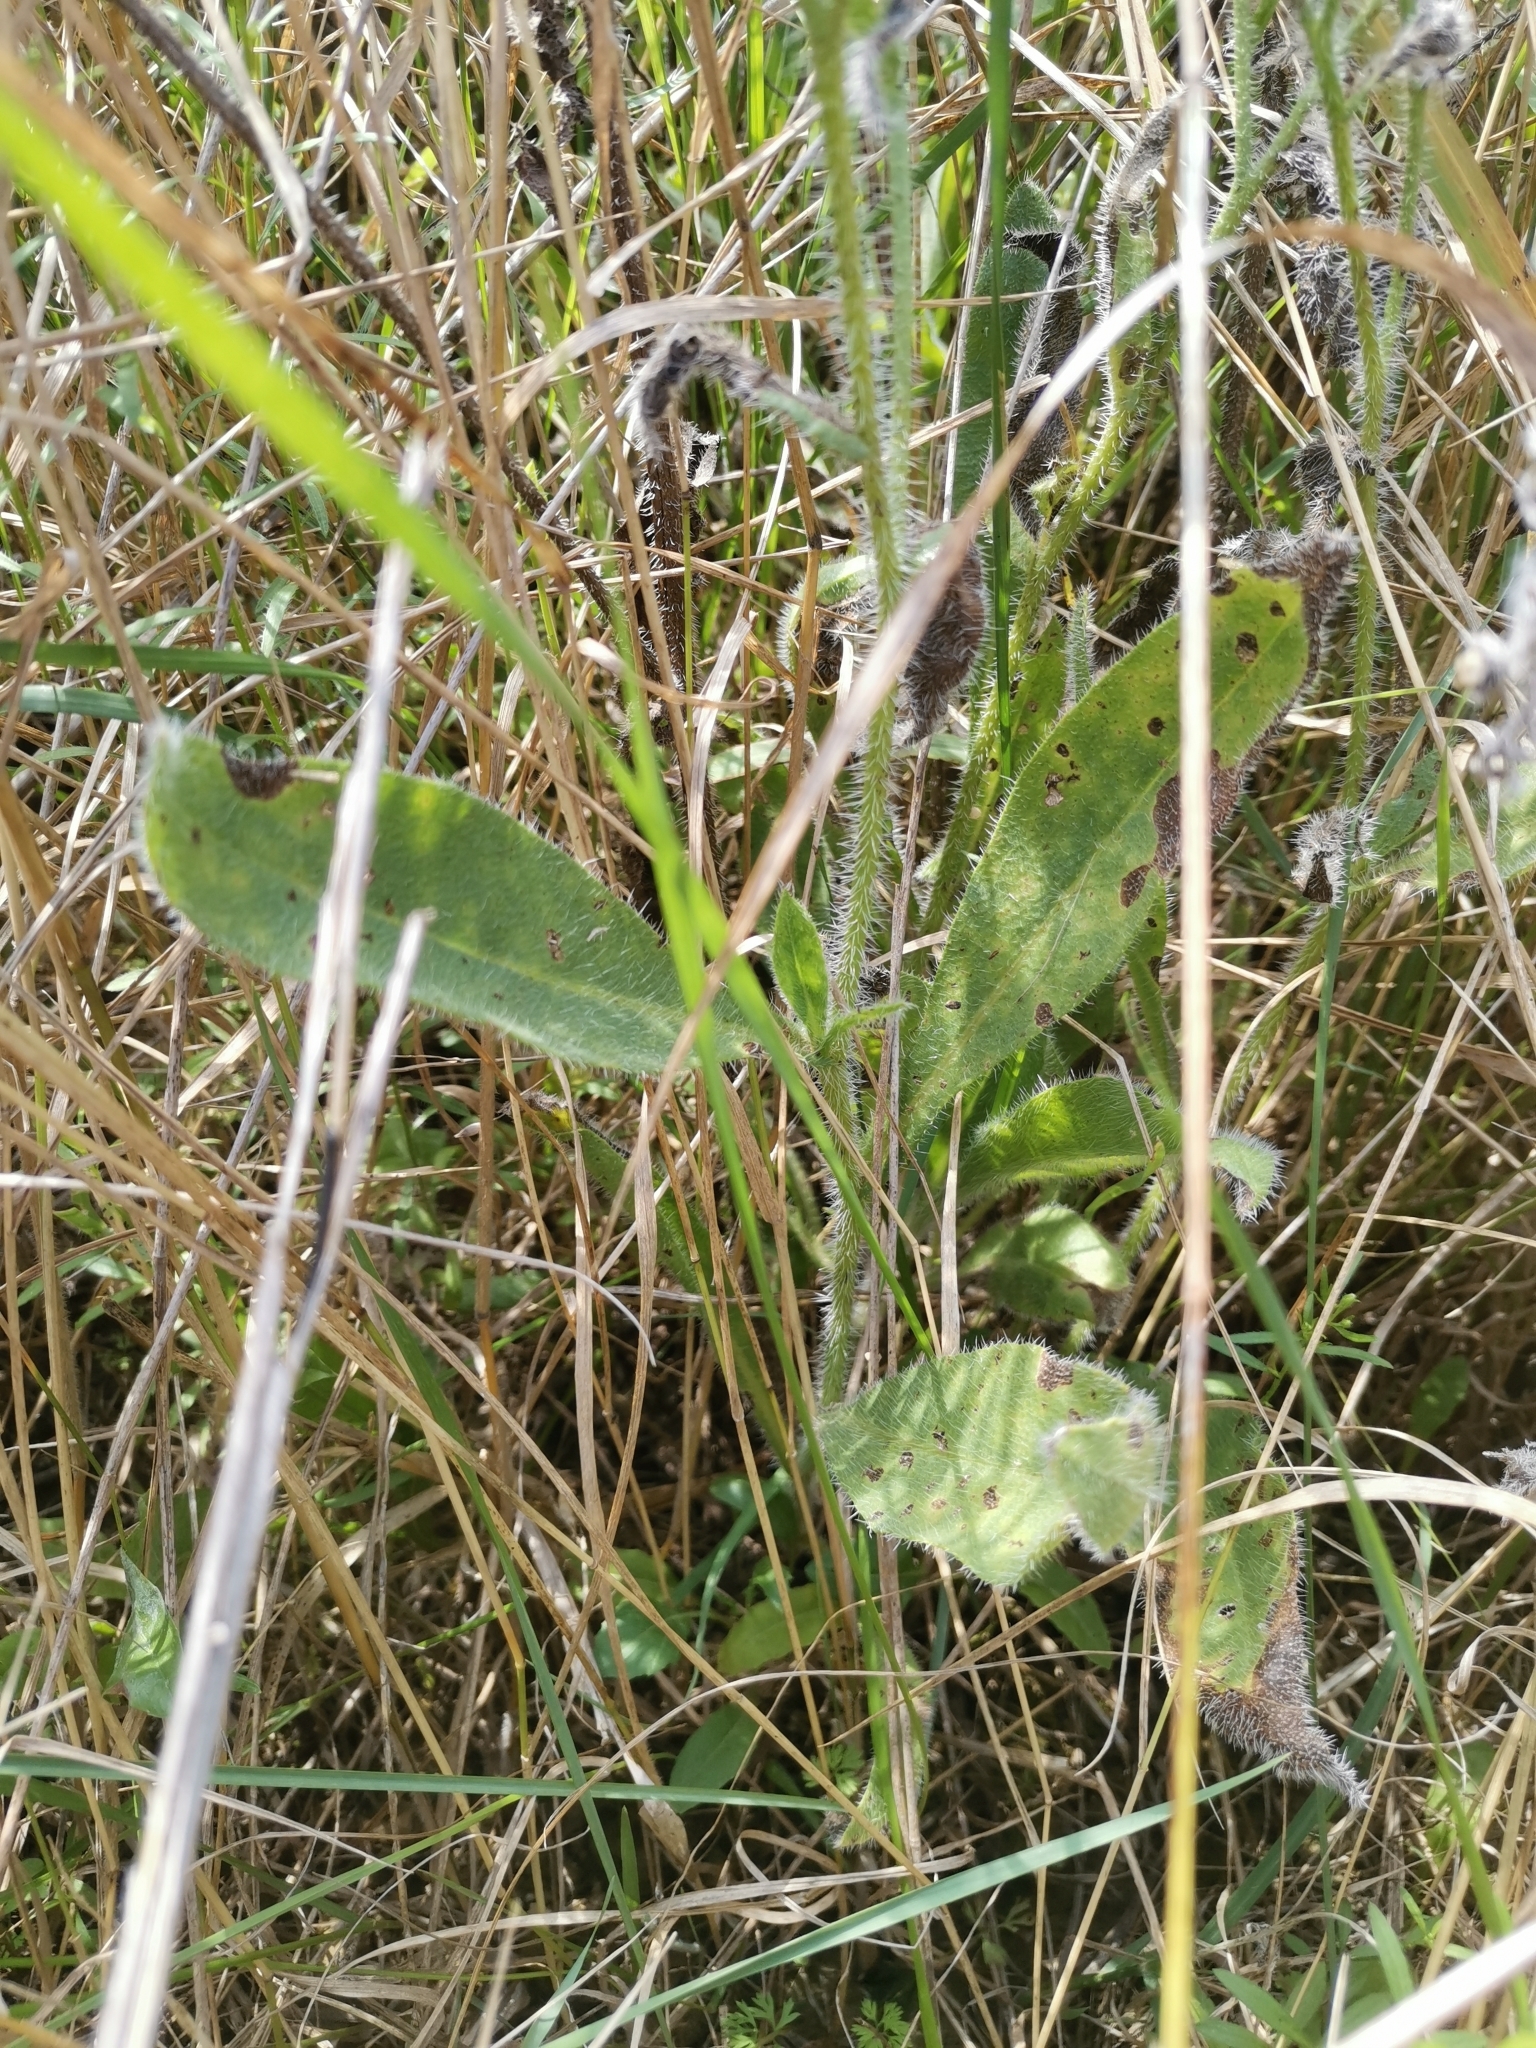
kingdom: Plantae
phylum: Tracheophyta
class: Magnoliopsida
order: Boraginales
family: Boraginaceae
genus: Anchusa
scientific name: Anchusa azurea
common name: Garden anchusa
